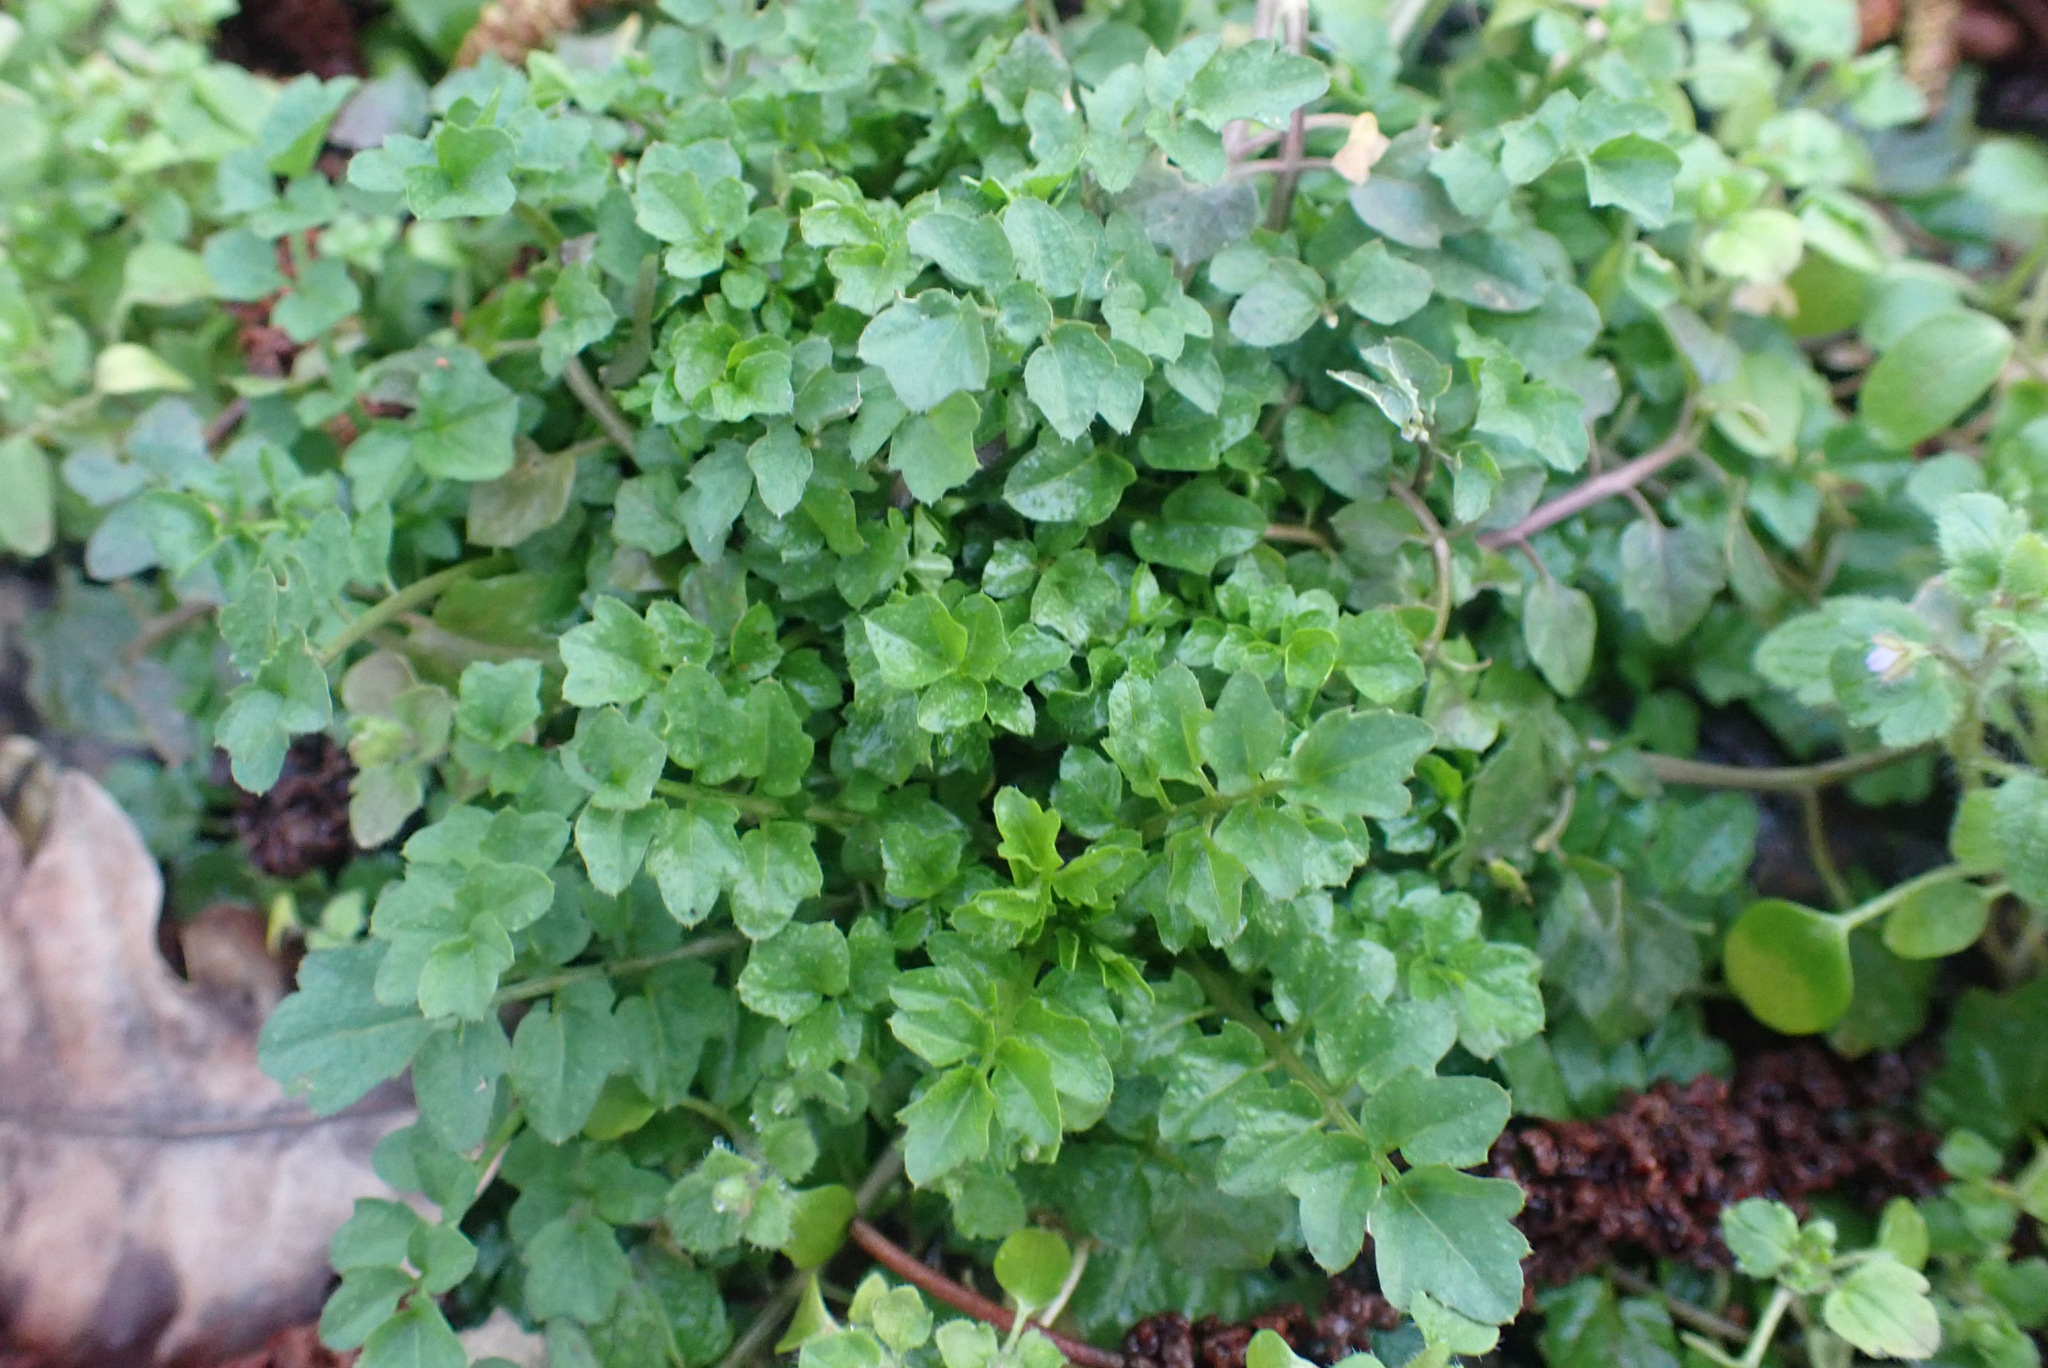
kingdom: Plantae
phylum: Tracheophyta
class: Magnoliopsida
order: Brassicales
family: Brassicaceae
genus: Cardamine
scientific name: Cardamine flexuosa
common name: Woodland bittercress
